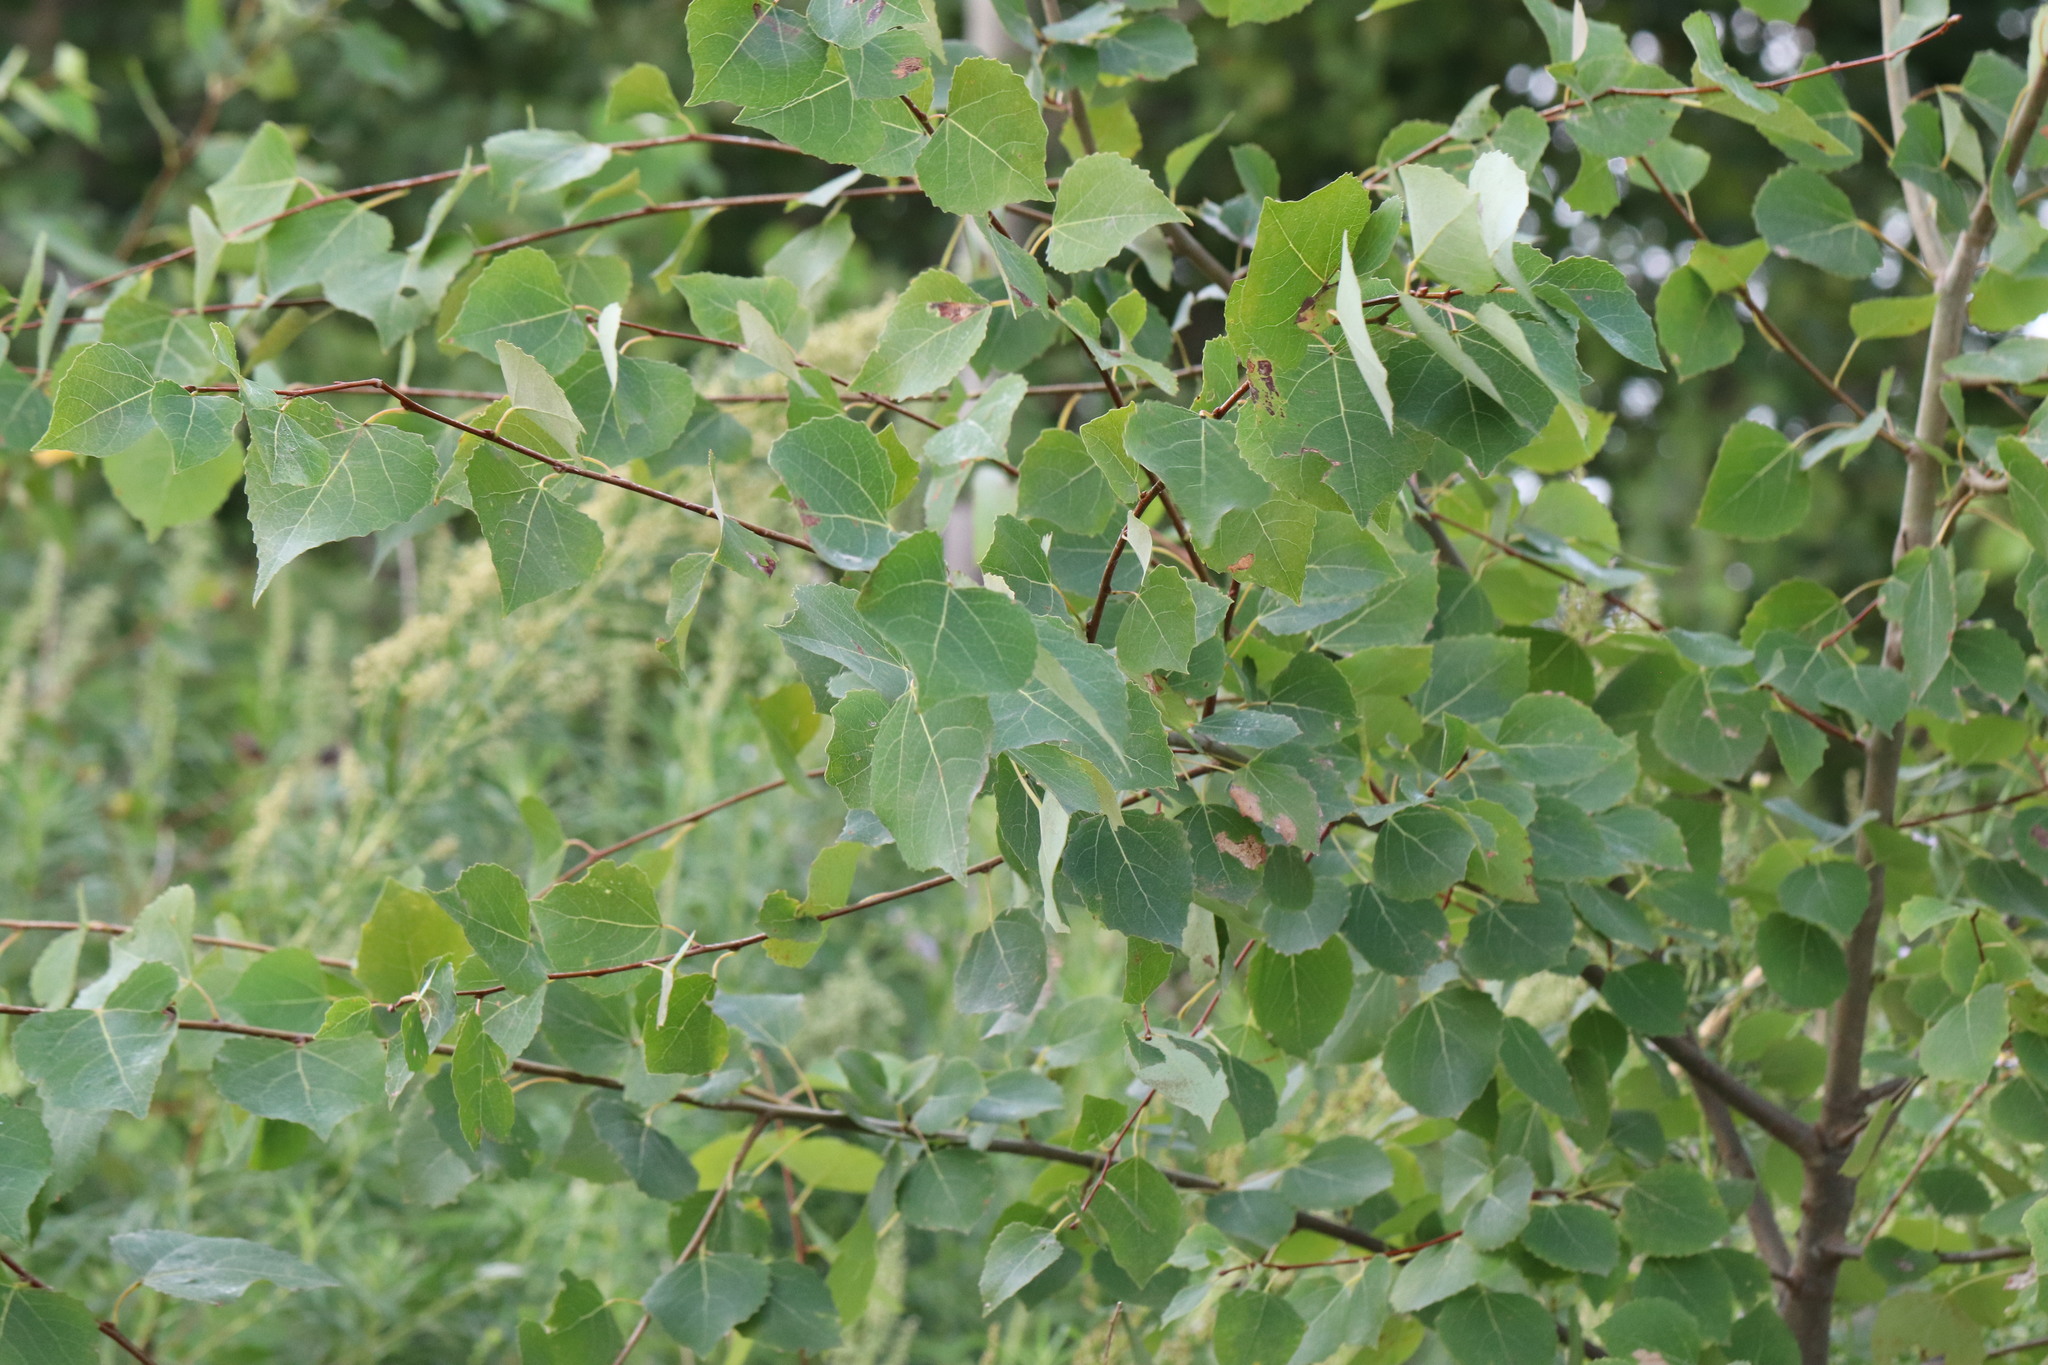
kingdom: Plantae
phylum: Tracheophyta
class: Magnoliopsida
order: Malpighiales
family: Salicaceae
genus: Populus
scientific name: Populus tremula
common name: European aspen
